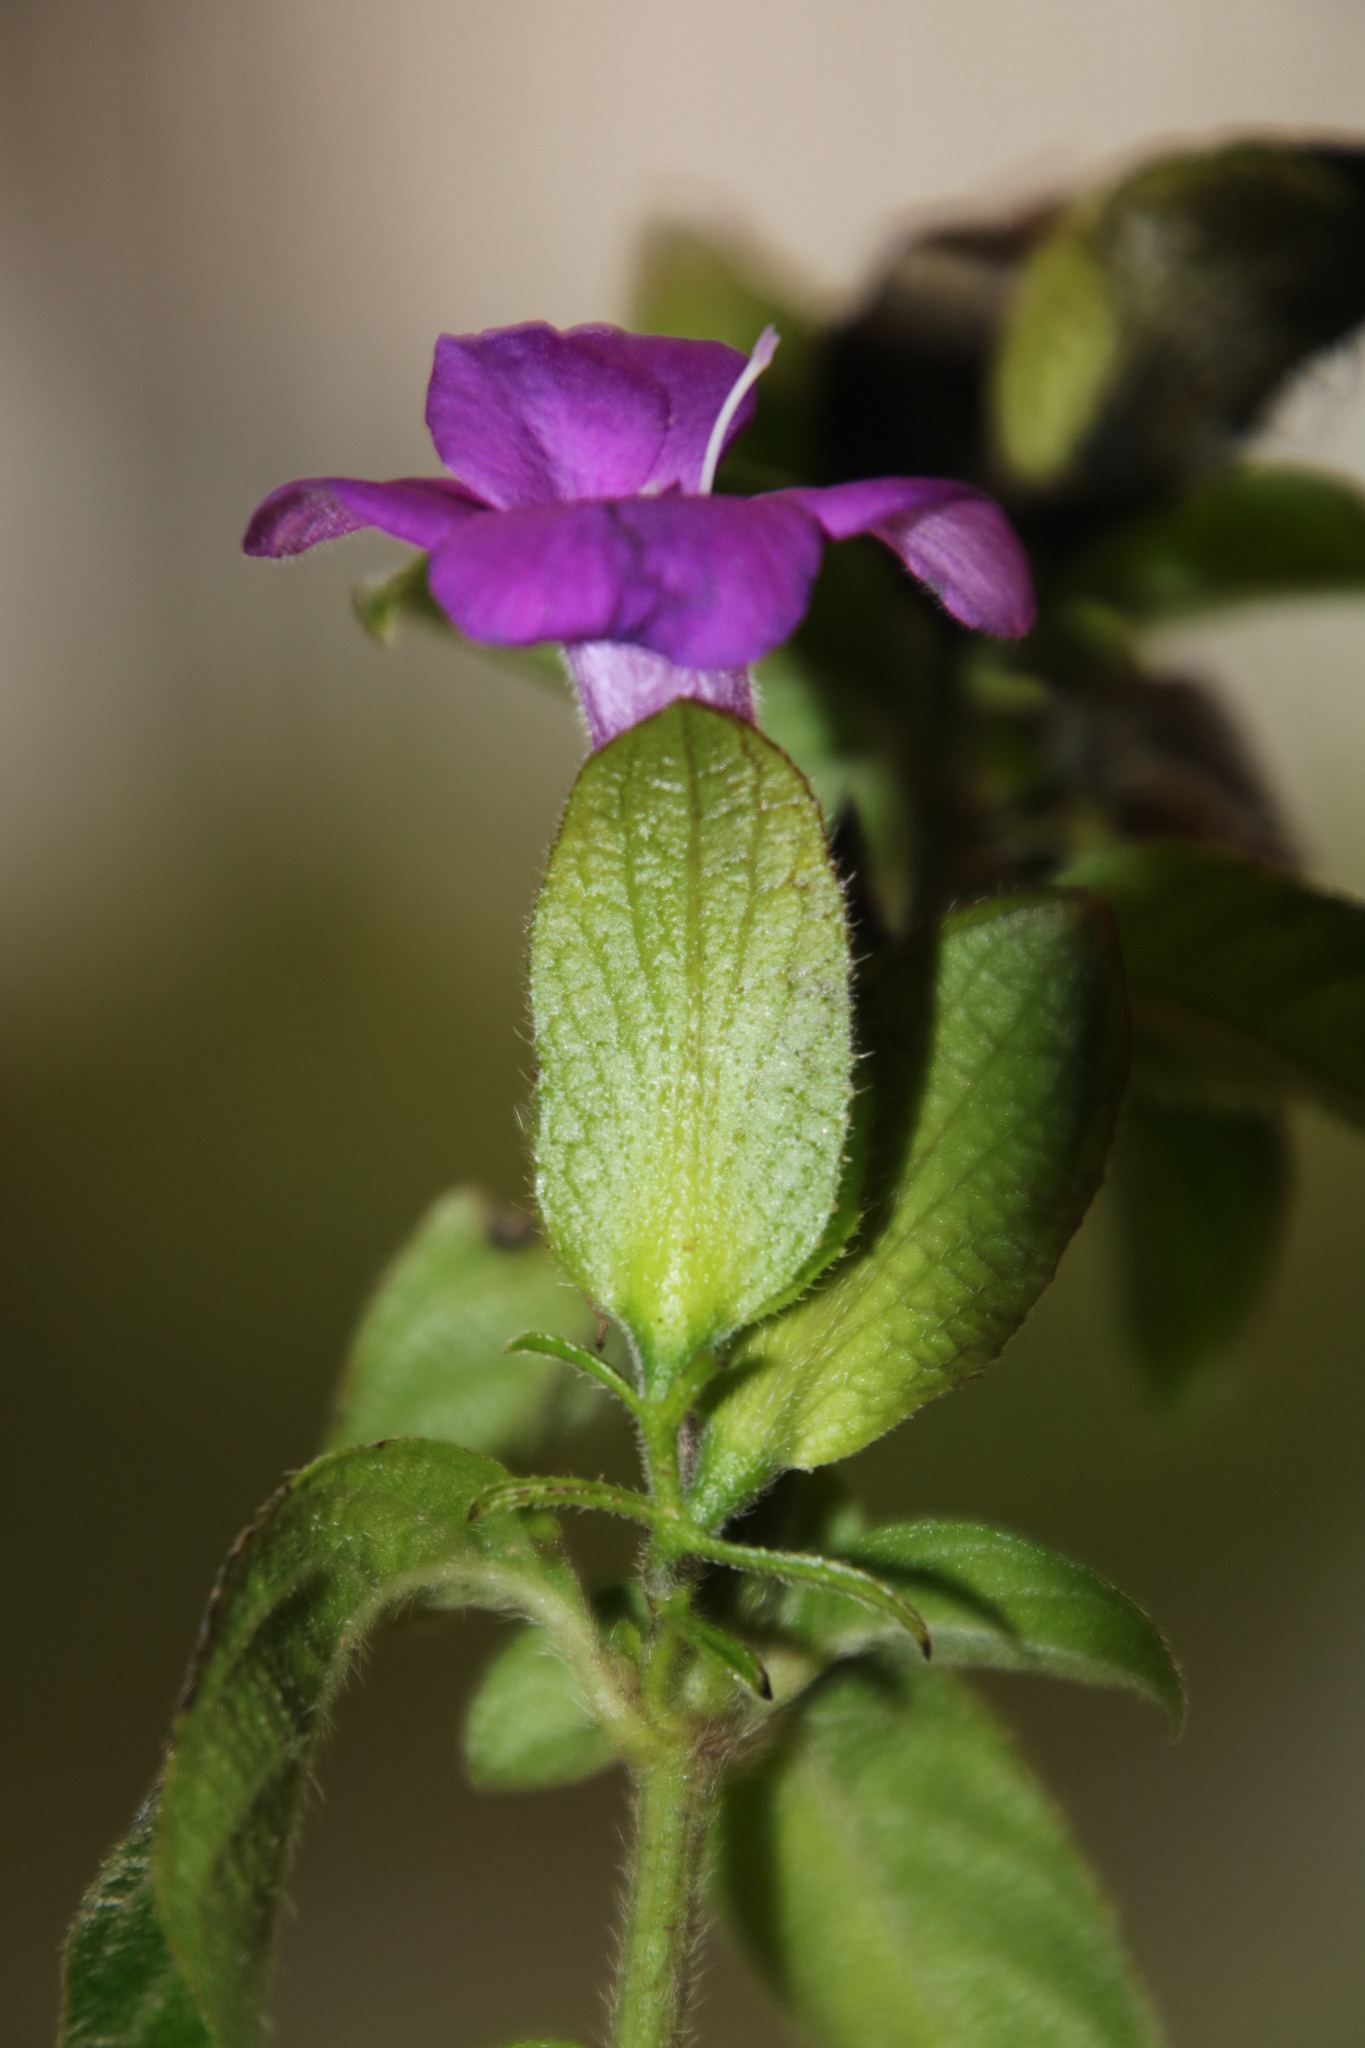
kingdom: Plantae
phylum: Tracheophyta
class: Magnoliopsida
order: Lamiales
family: Acanthaceae
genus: Barleria
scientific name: Barleria
